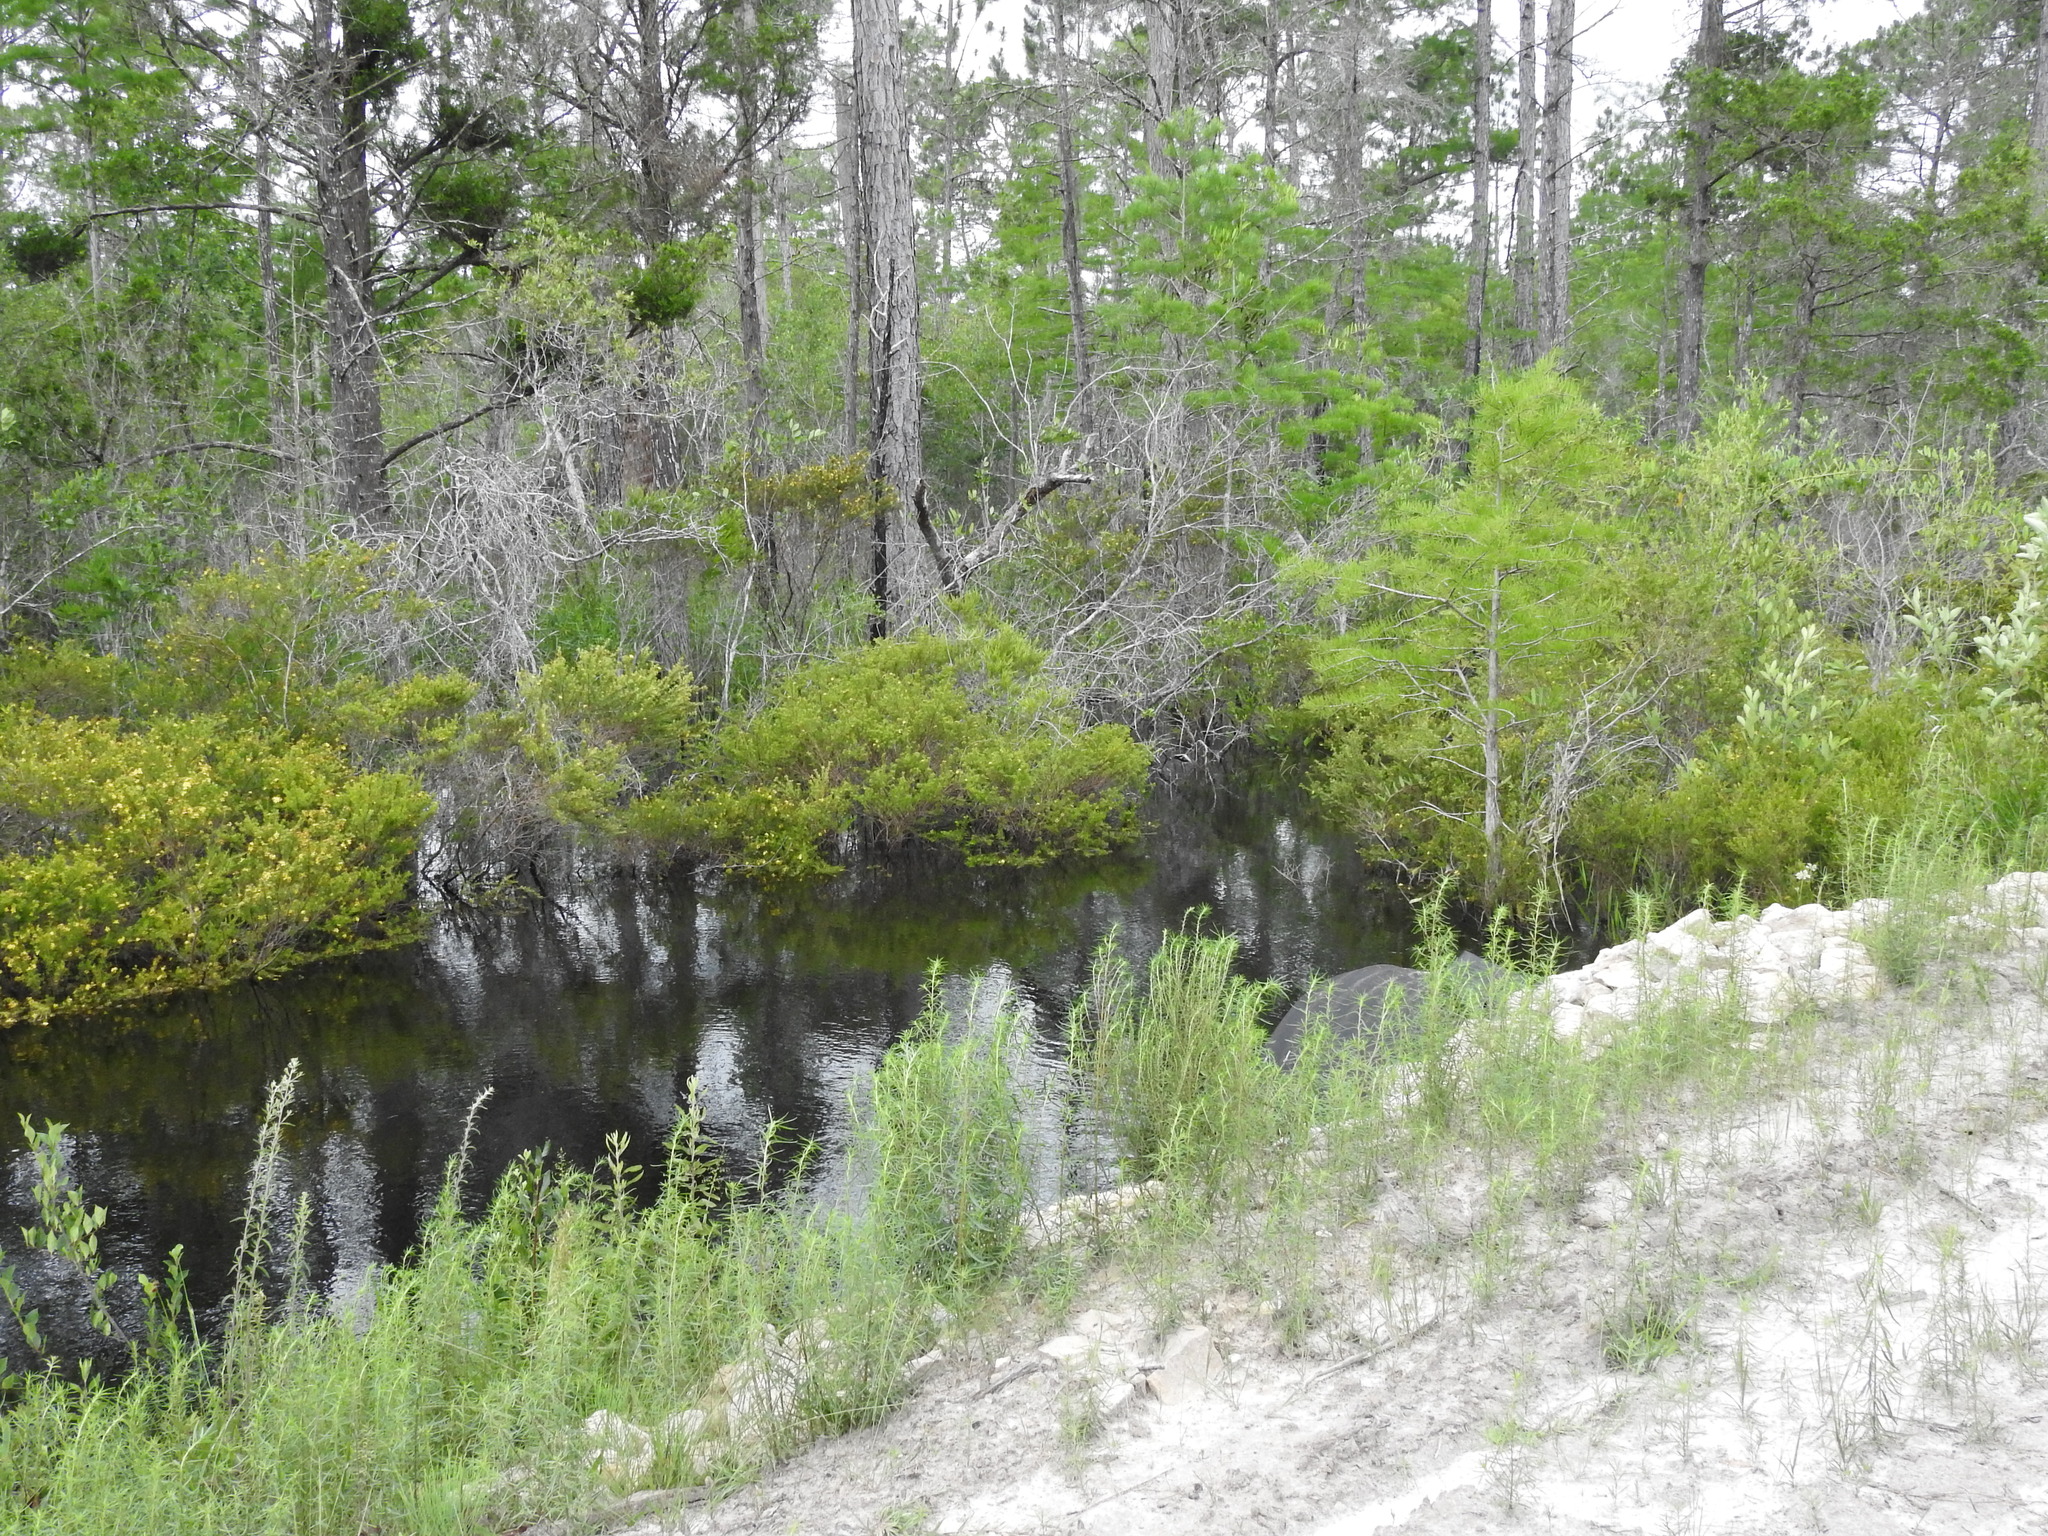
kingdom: Animalia
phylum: Arthropoda
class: Insecta
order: Odonata
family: Gomphidae
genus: Progomphus
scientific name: Progomphus bellei
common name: Belle's sanddragon
